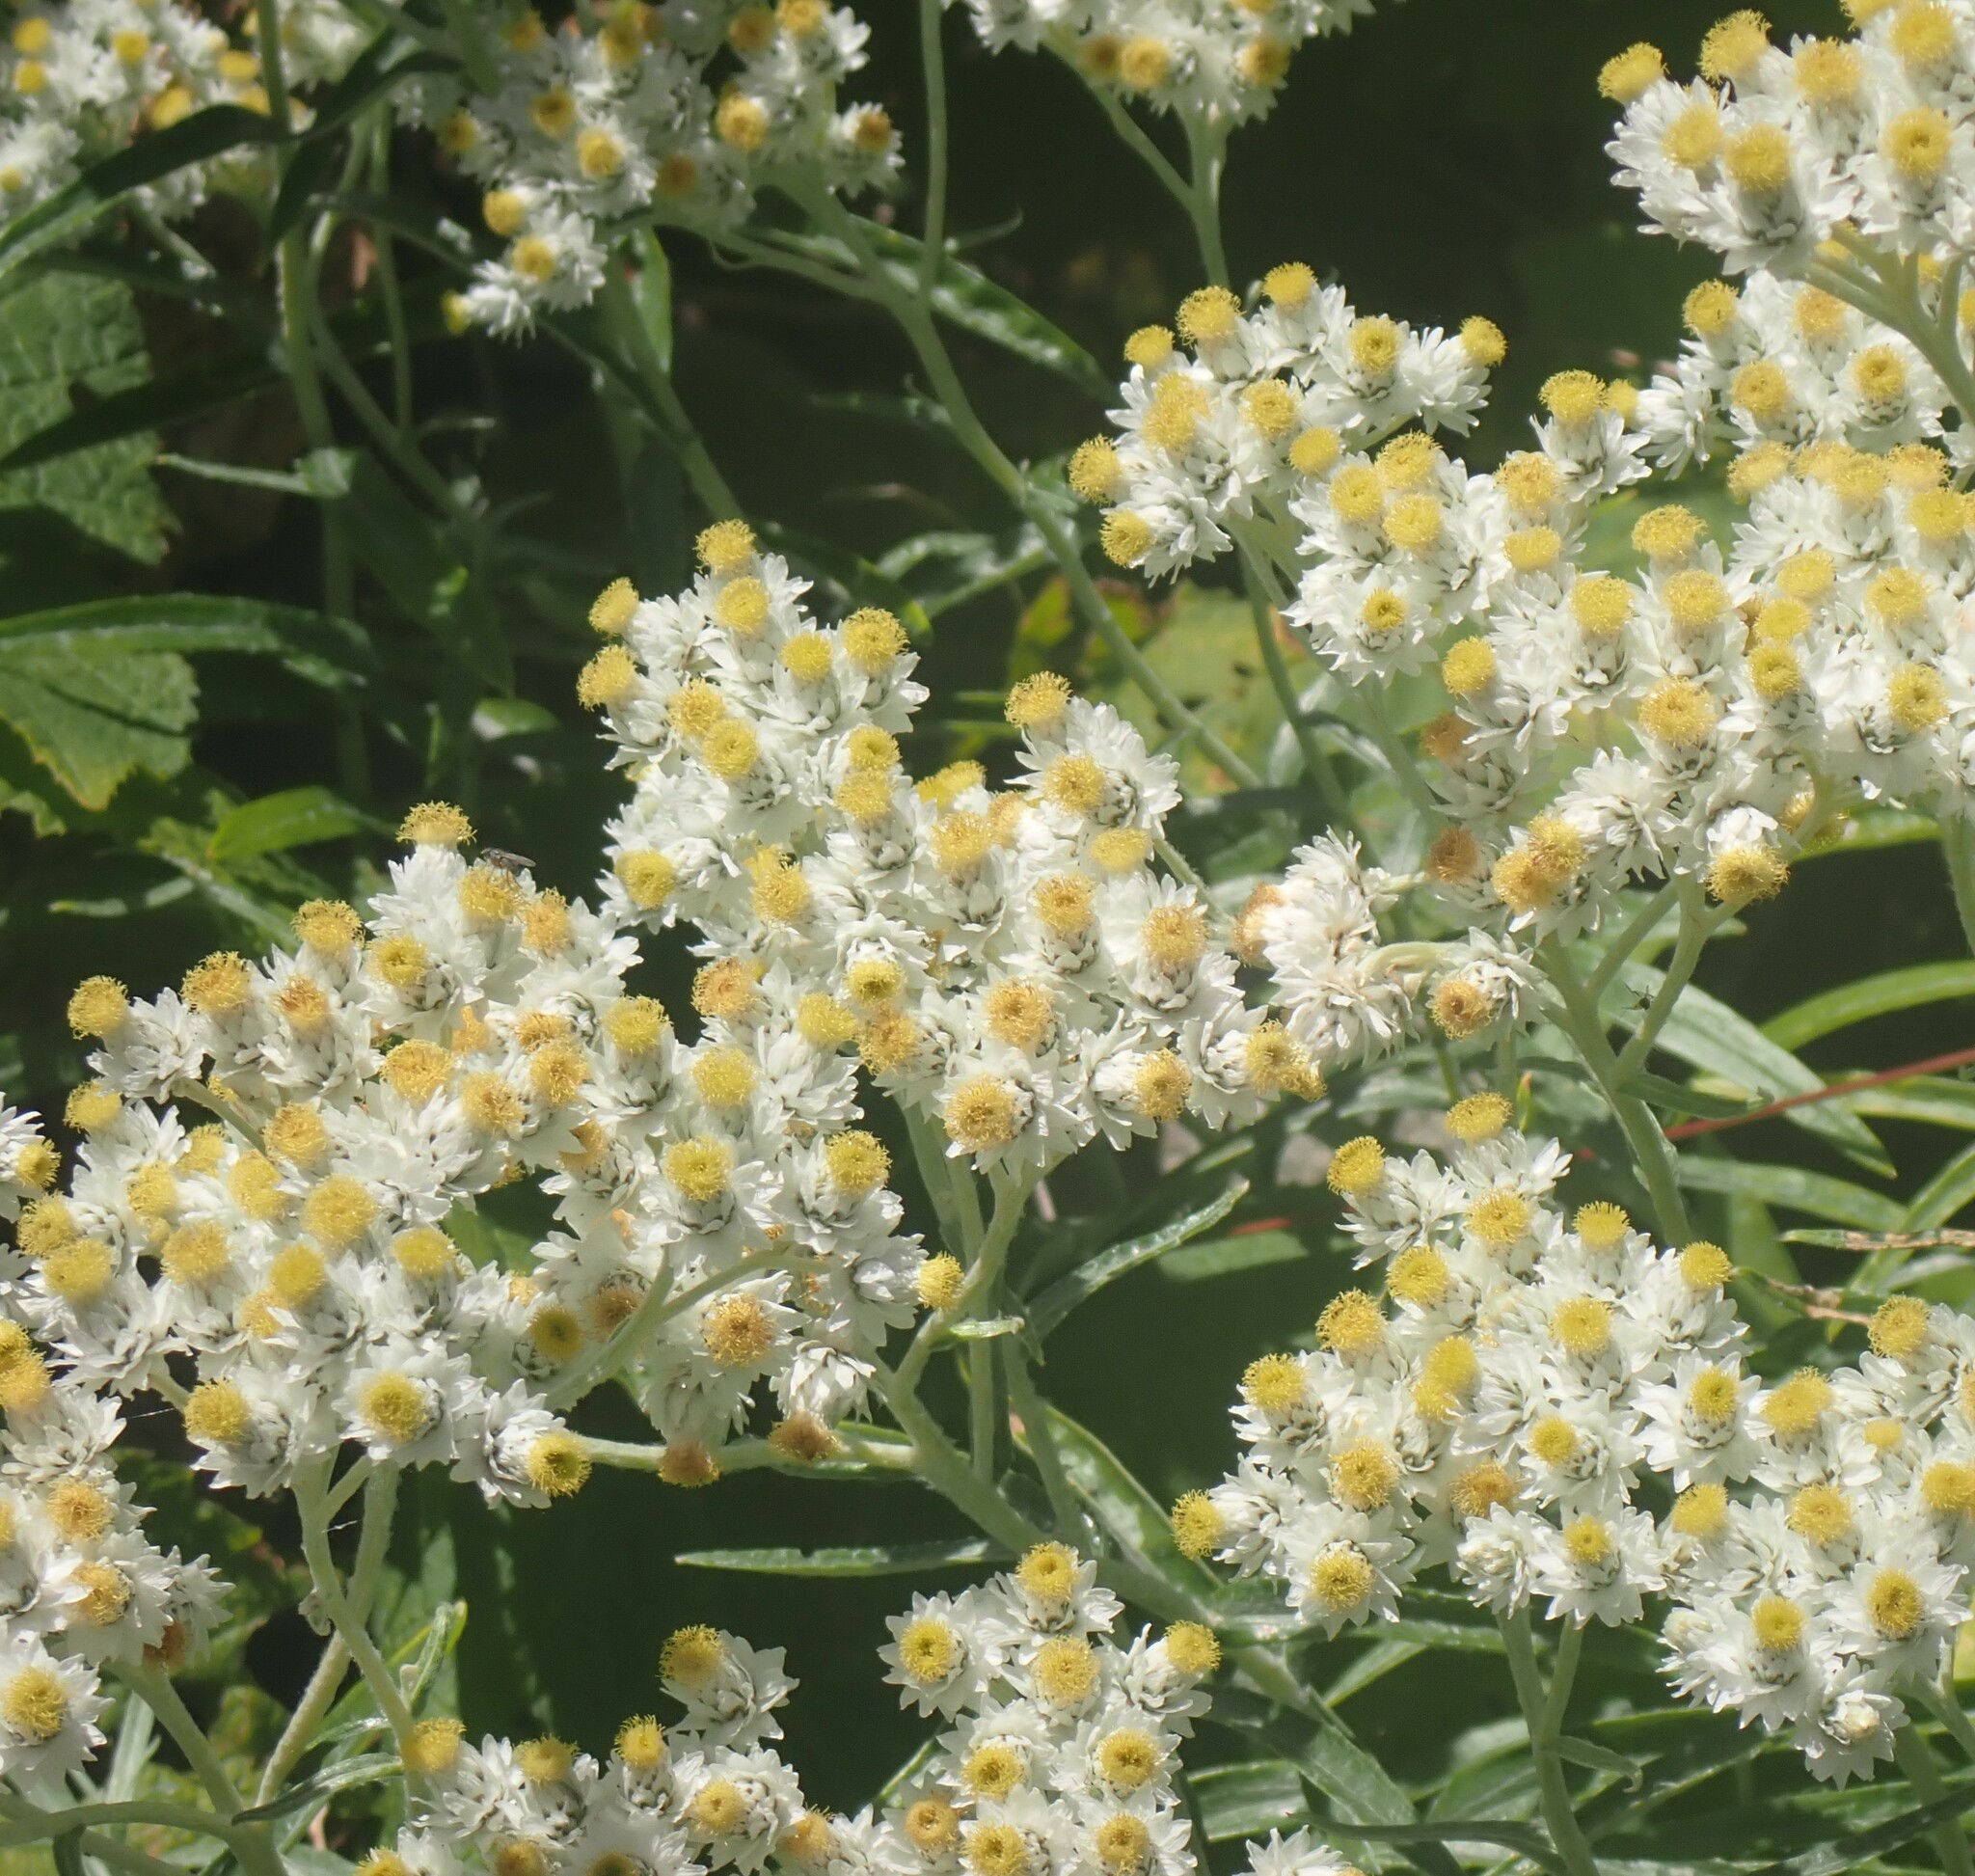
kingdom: Plantae
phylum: Tracheophyta
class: Magnoliopsida
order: Asterales
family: Asteraceae
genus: Anaphalis
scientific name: Anaphalis margaritacea
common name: Pearly everlasting
